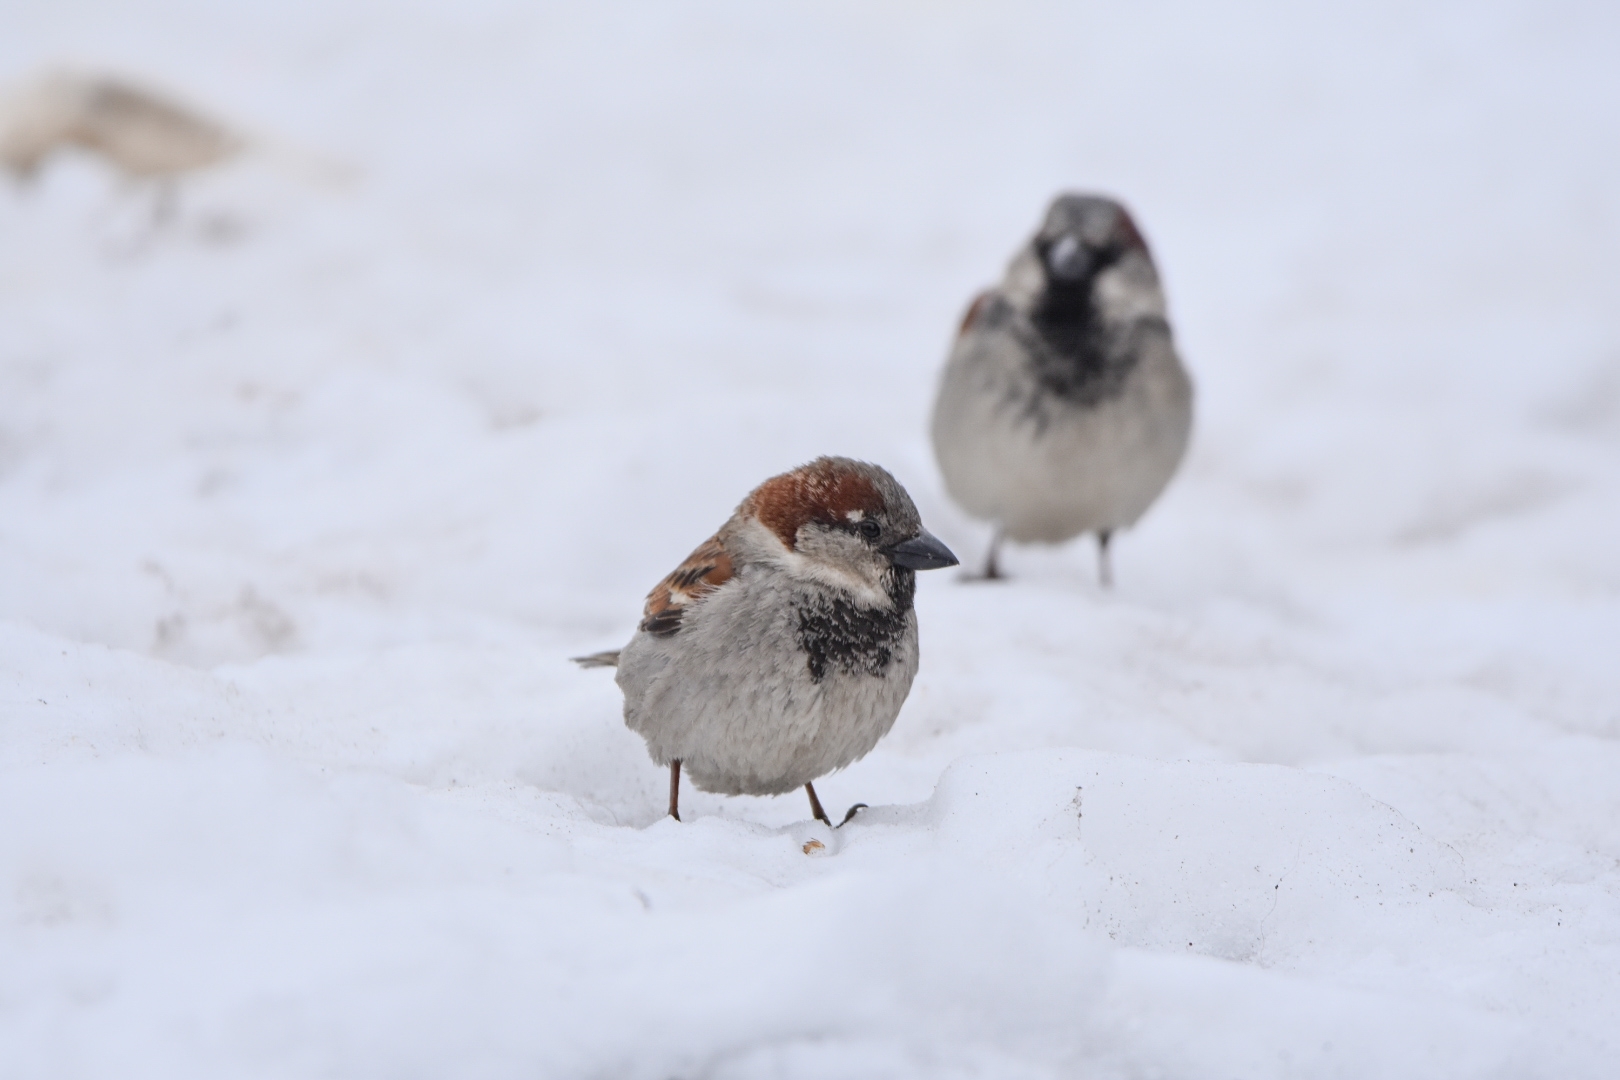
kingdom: Animalia
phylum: Chordata
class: Aves
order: Passeriformes
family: Passeridae
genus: Passer
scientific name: Passer domesticus
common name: House sparrow
